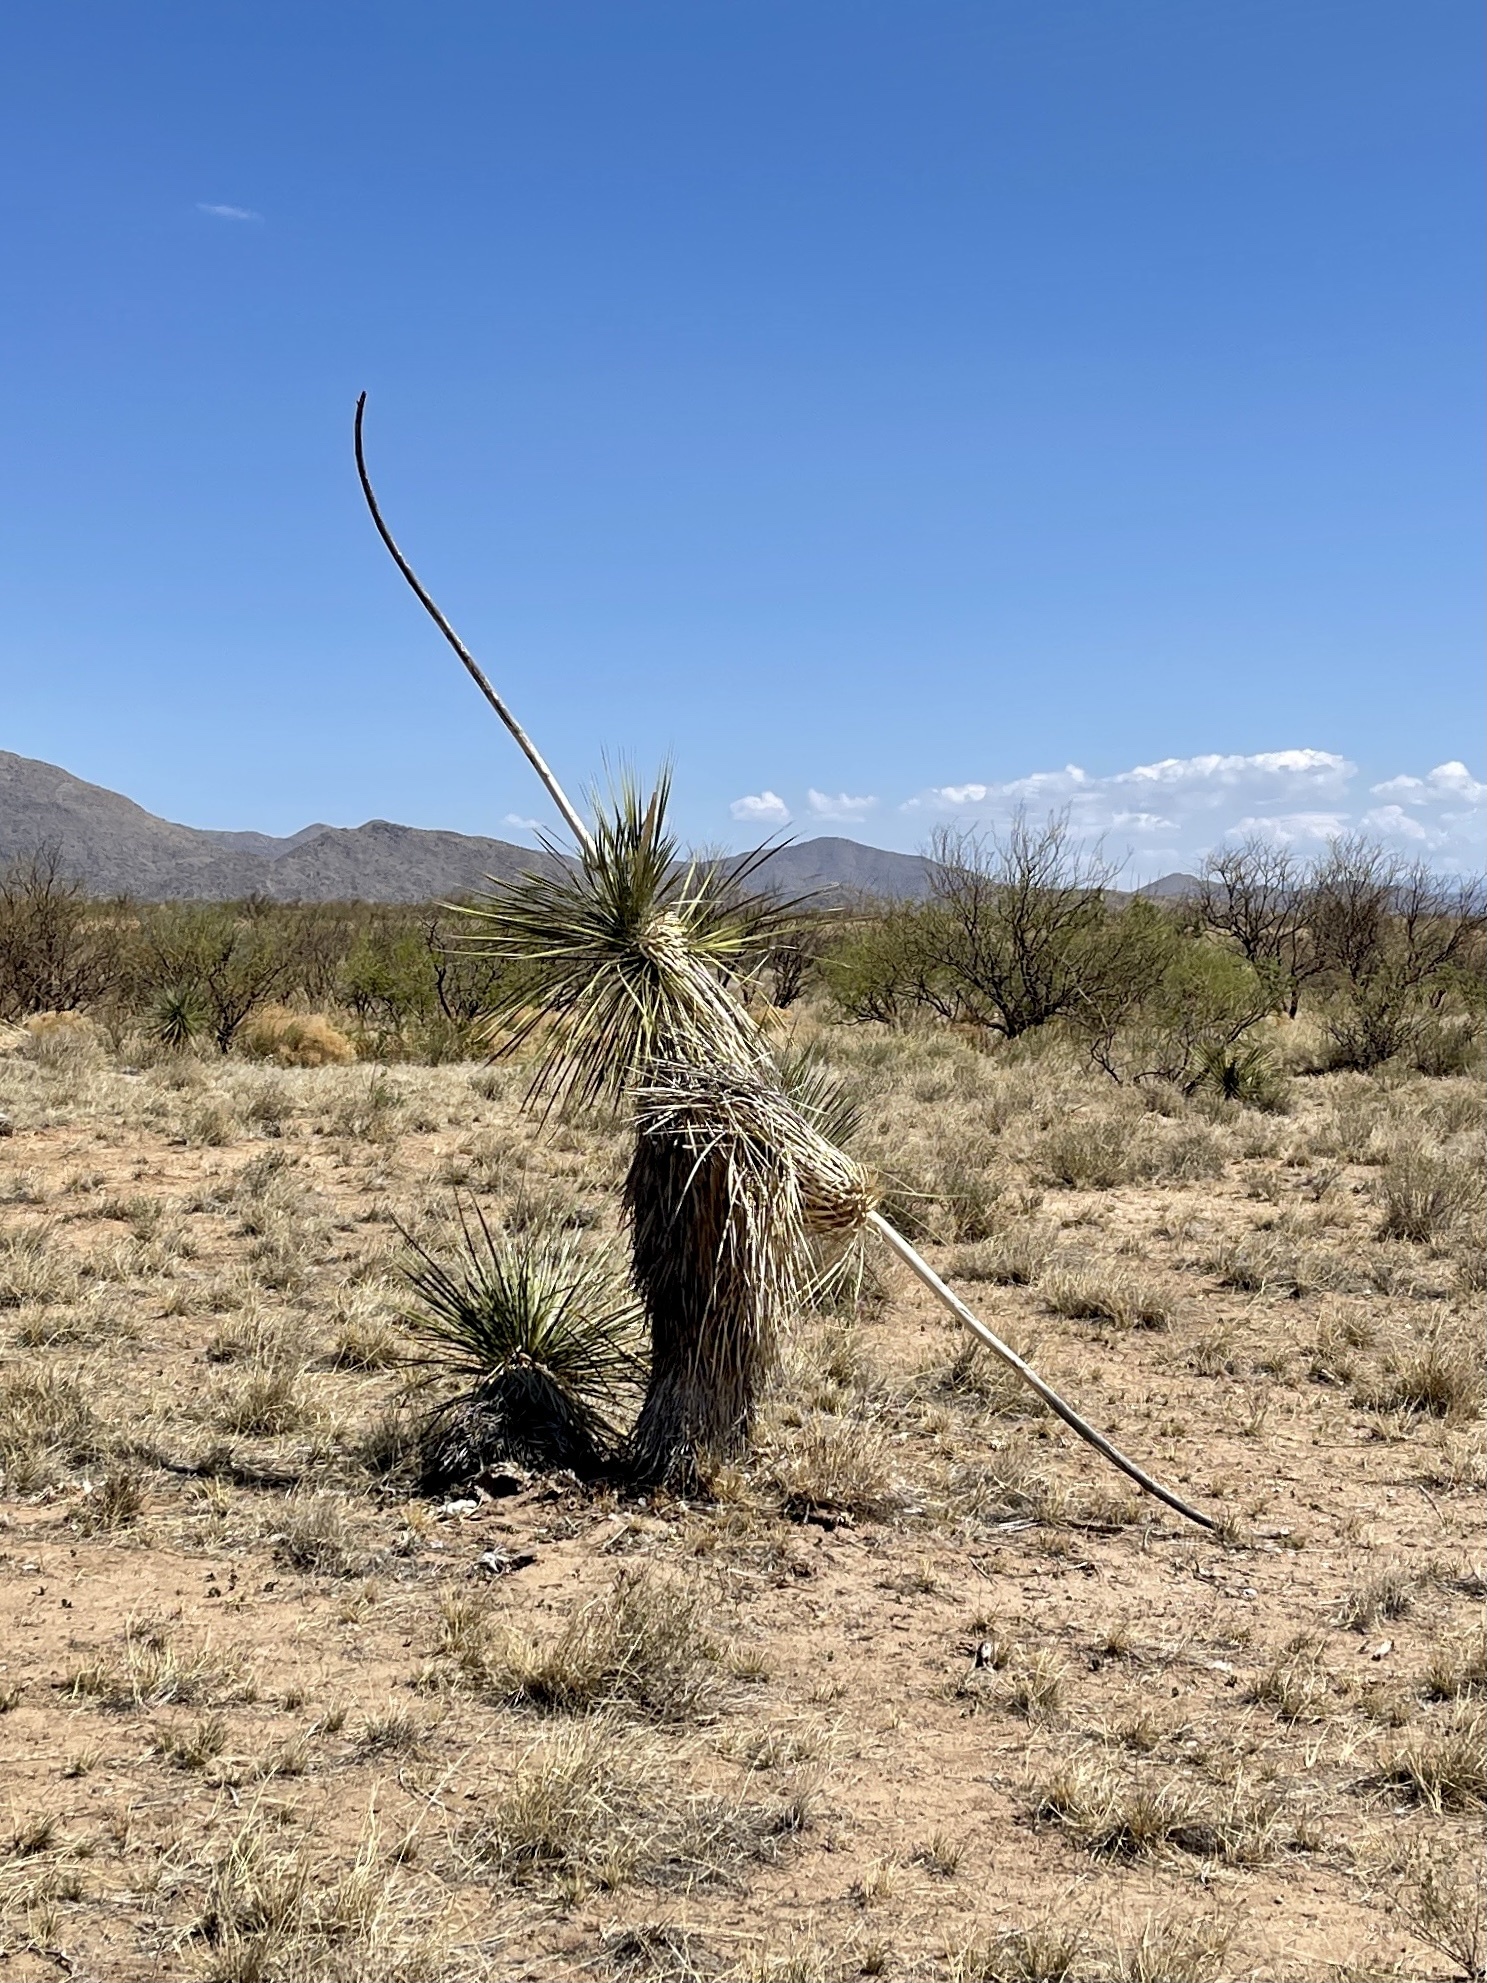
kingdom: Plantae
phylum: Tracheophyta
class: Liliopsida
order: Asparagales
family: Asparagaceae
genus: Yucca
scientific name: Yucca elata
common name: Palmella
